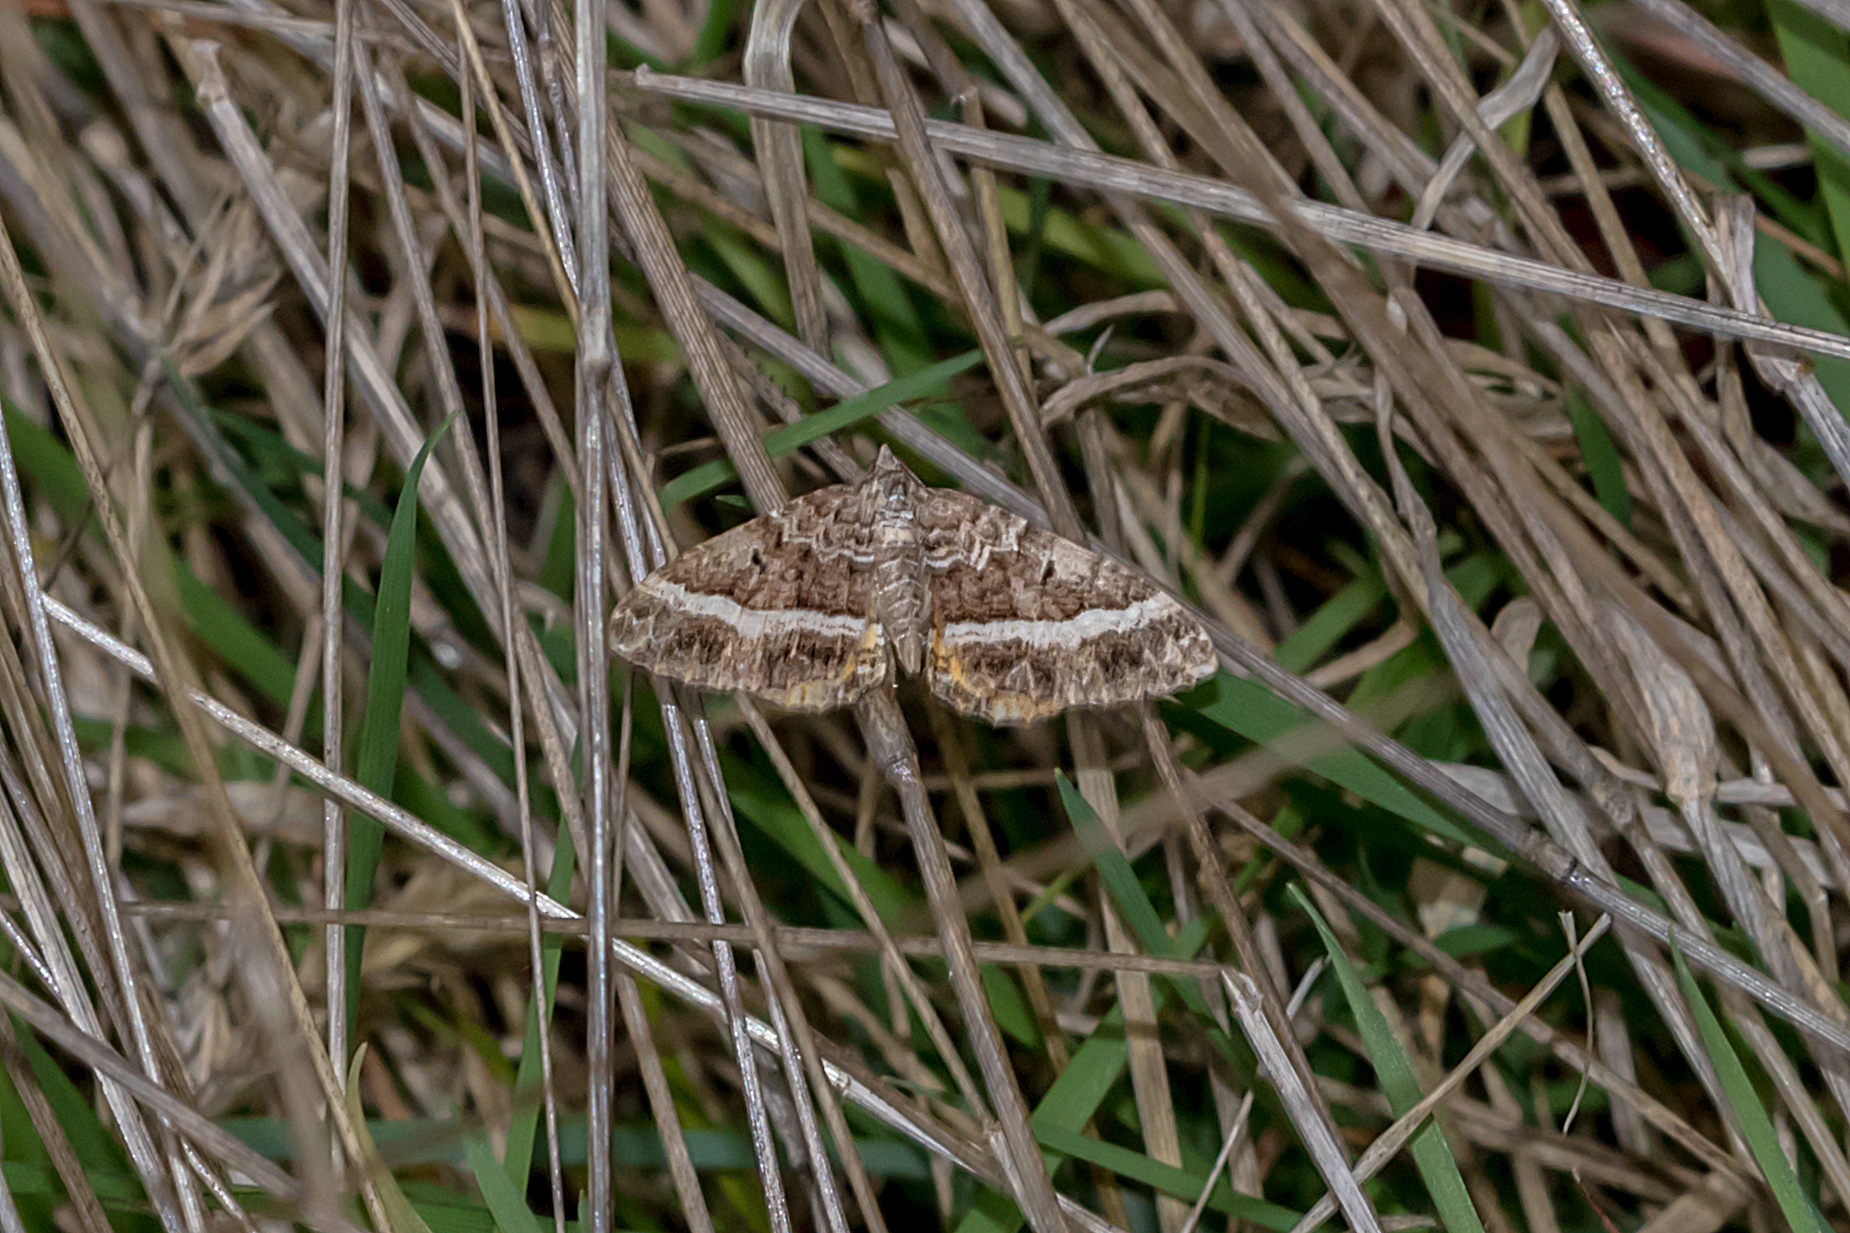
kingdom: Animalia
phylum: Arthropoda
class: Insecta
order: Lepidoptera
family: Geometridae
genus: Chrysolarentia
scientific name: Chrysolarentia vicissata
